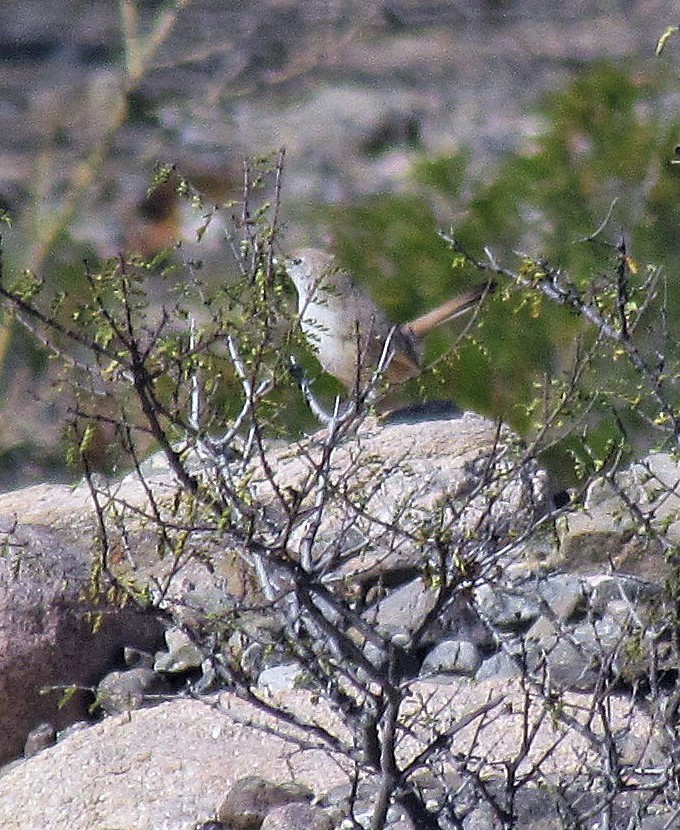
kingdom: Animalia
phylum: Chordata
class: Aves
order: Passeriformes
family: Rhinocryptidae
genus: Teledromas
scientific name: Teledromas fuscus
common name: Sandy gallito
